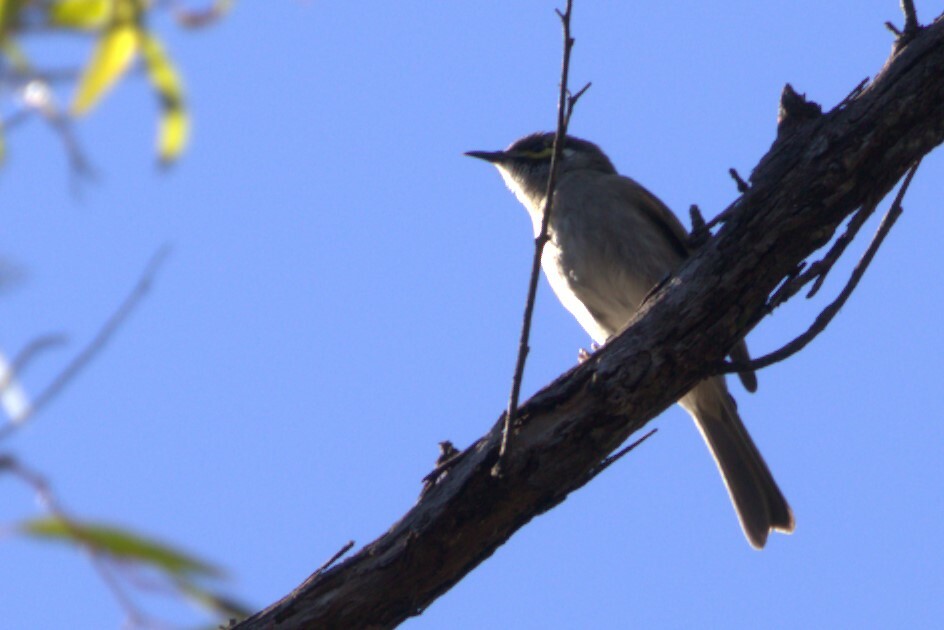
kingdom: Animalia
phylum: Chordata
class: Aves
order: Passeriformes
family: Meliphagidae
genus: Caligavis
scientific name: Caligavis chrysops
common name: Yellow-faced honeyeater
